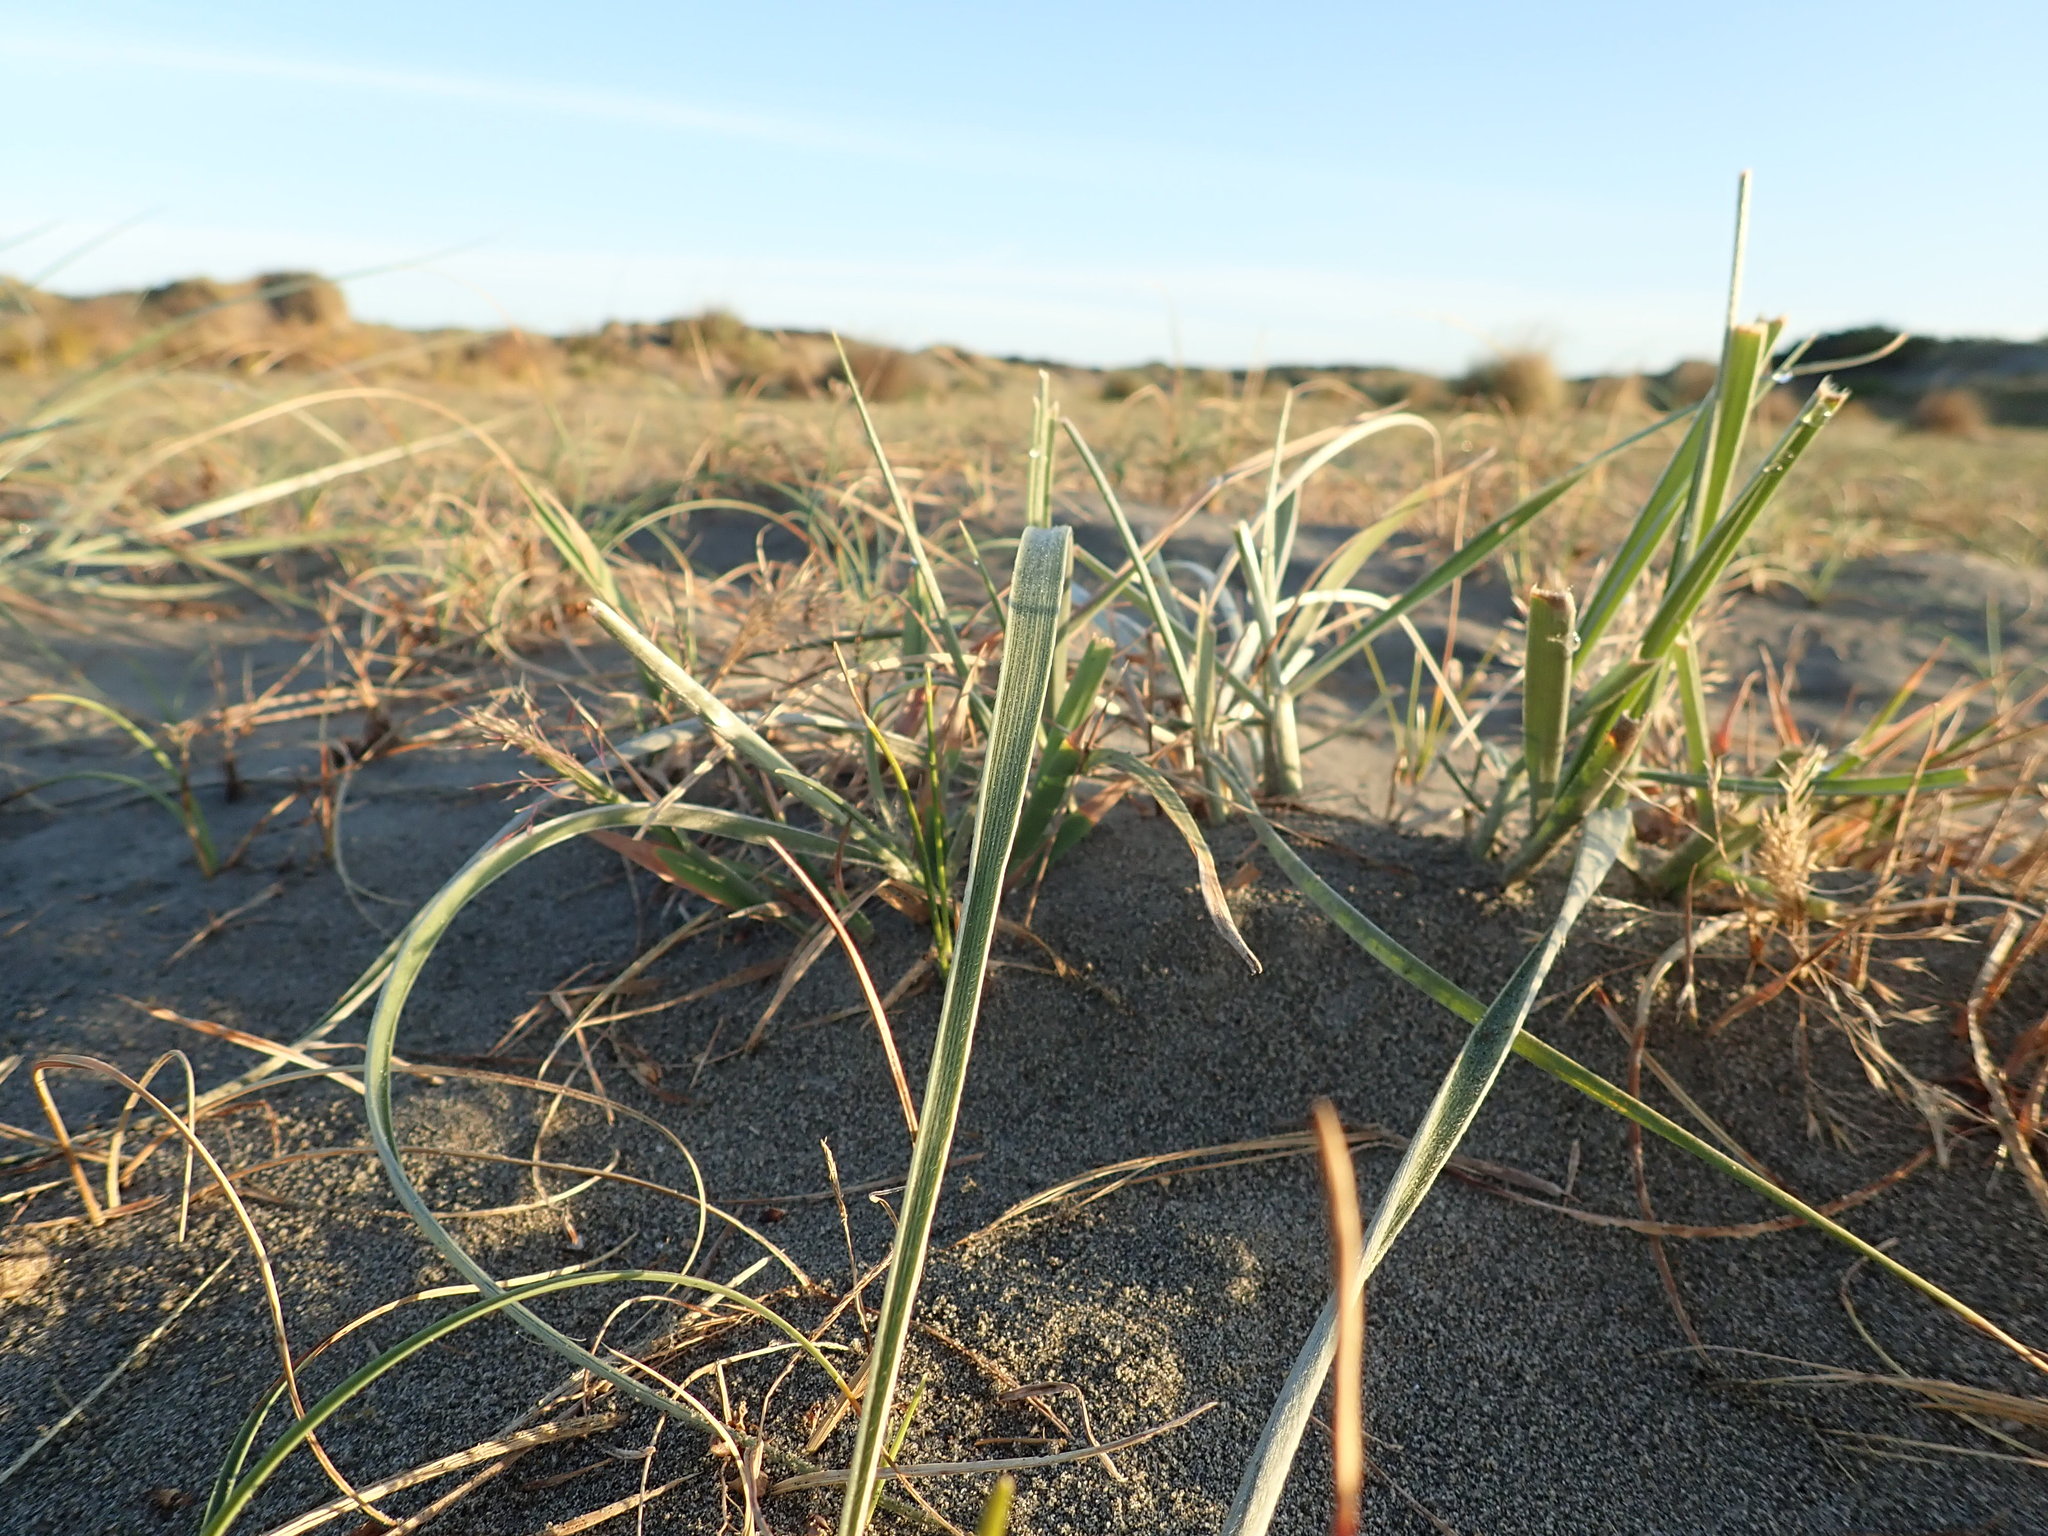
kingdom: Plantae
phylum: Tracheophyta
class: Liliopsida
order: Poales
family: Poaceae
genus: Spinifex
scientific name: Spinifex sericeus
